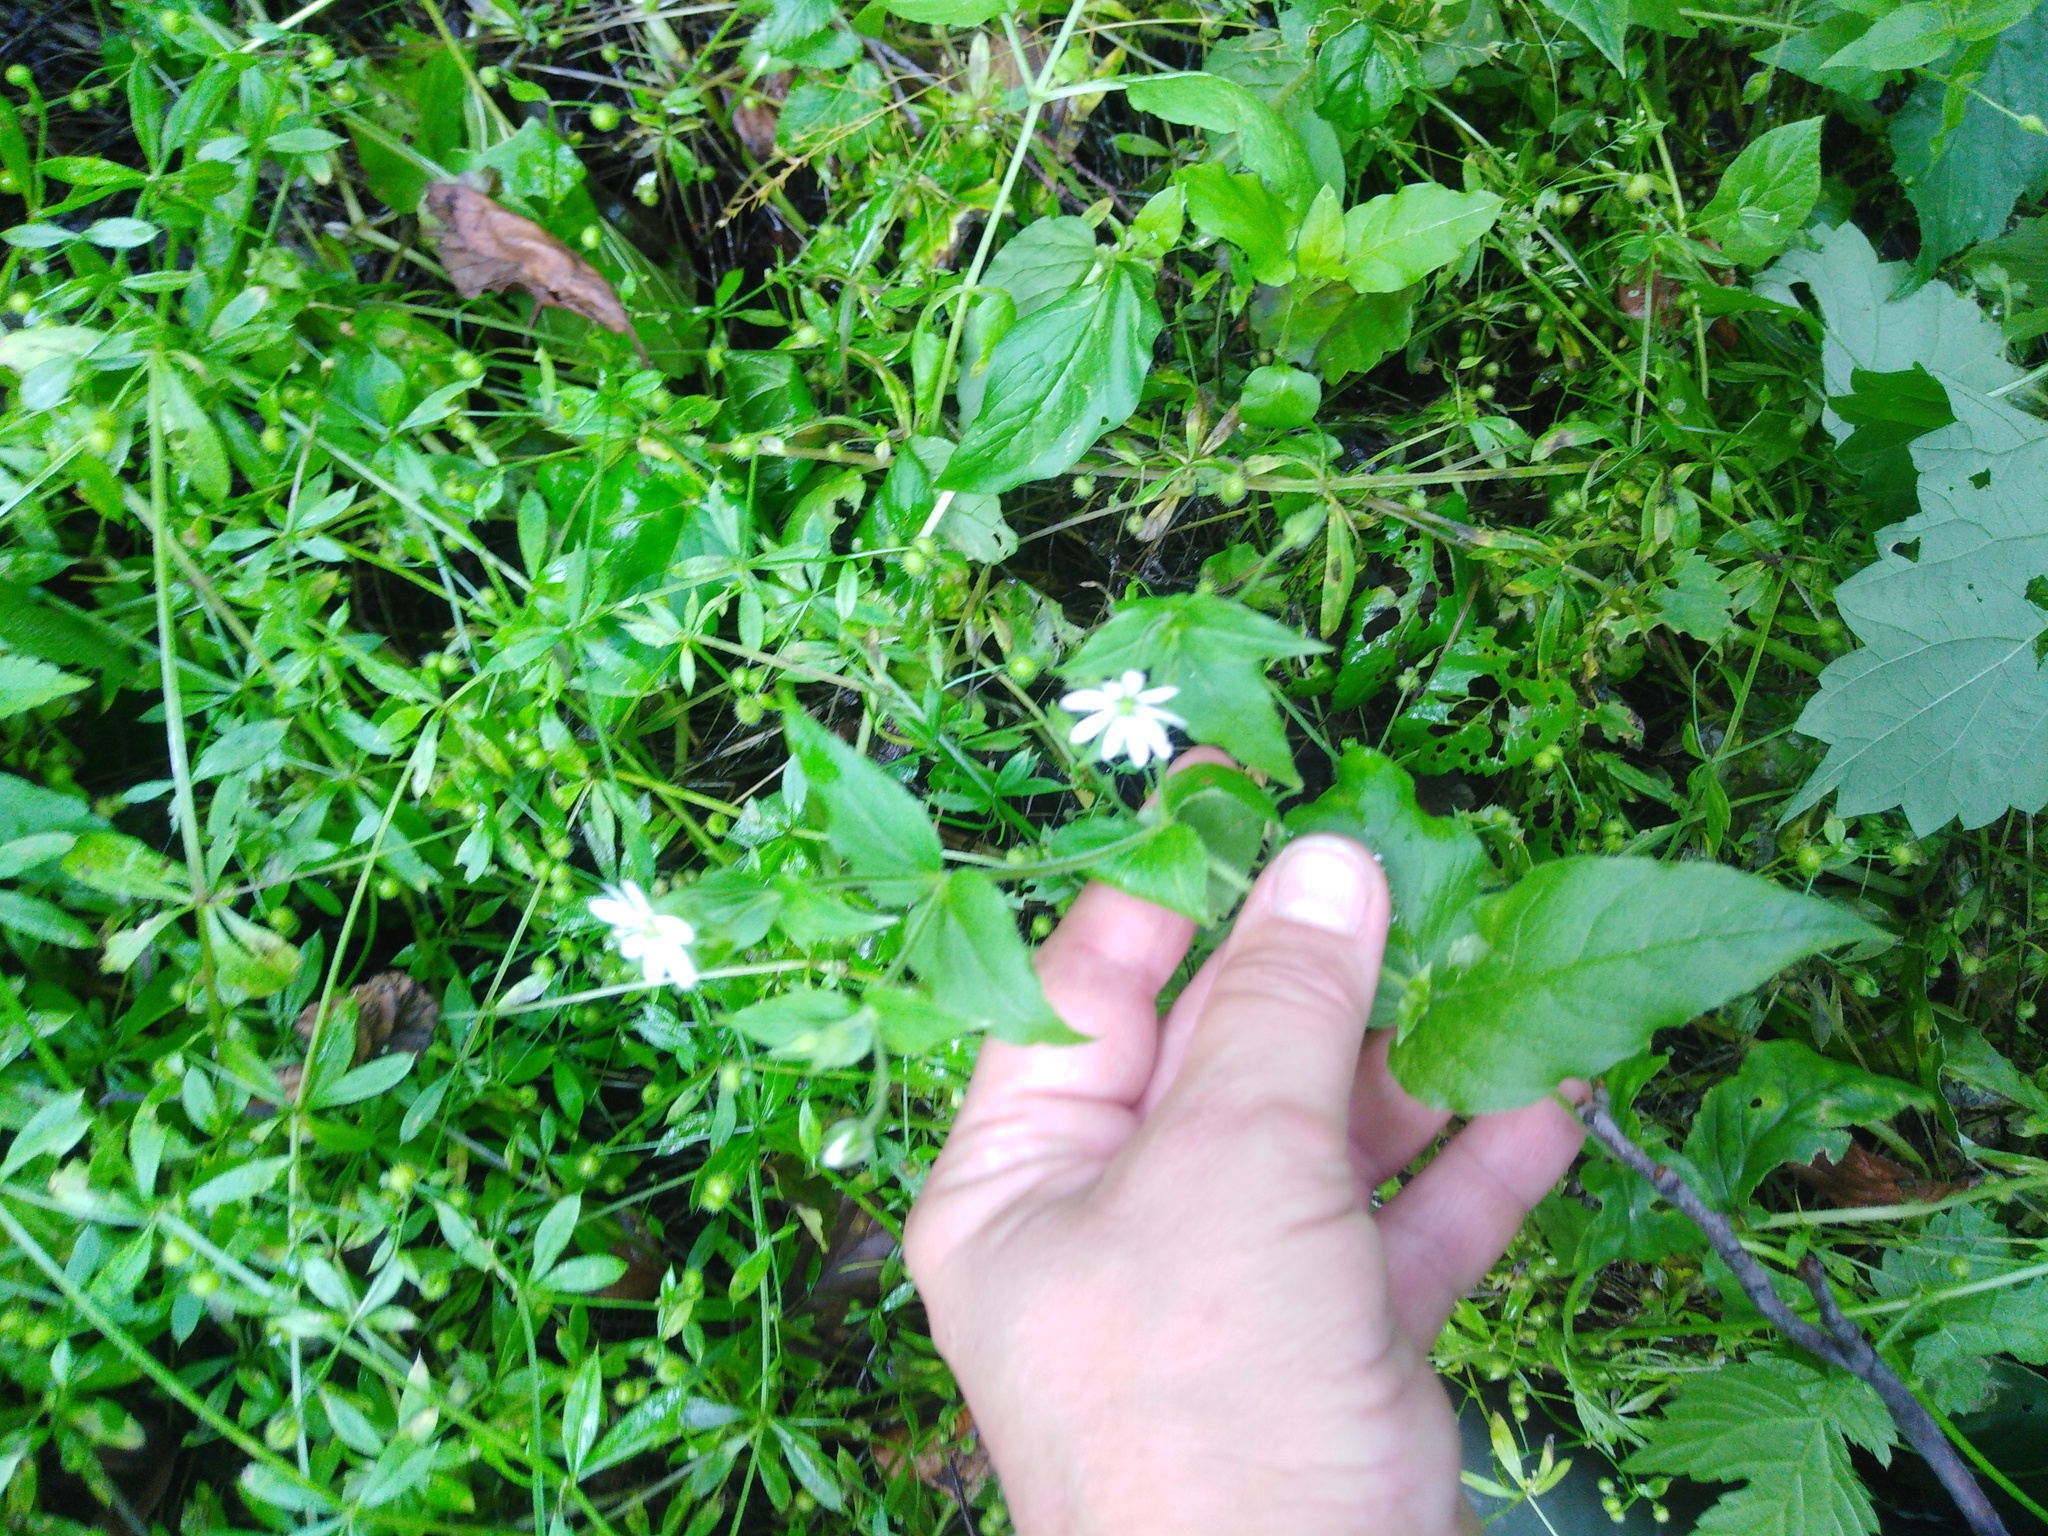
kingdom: Plantae
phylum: Tracheophyta
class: Magnoliopsida
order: Caryophyllales
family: Caryophyllaceae
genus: Stellaria
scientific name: Stellaria aquatica
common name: Water chickweed
